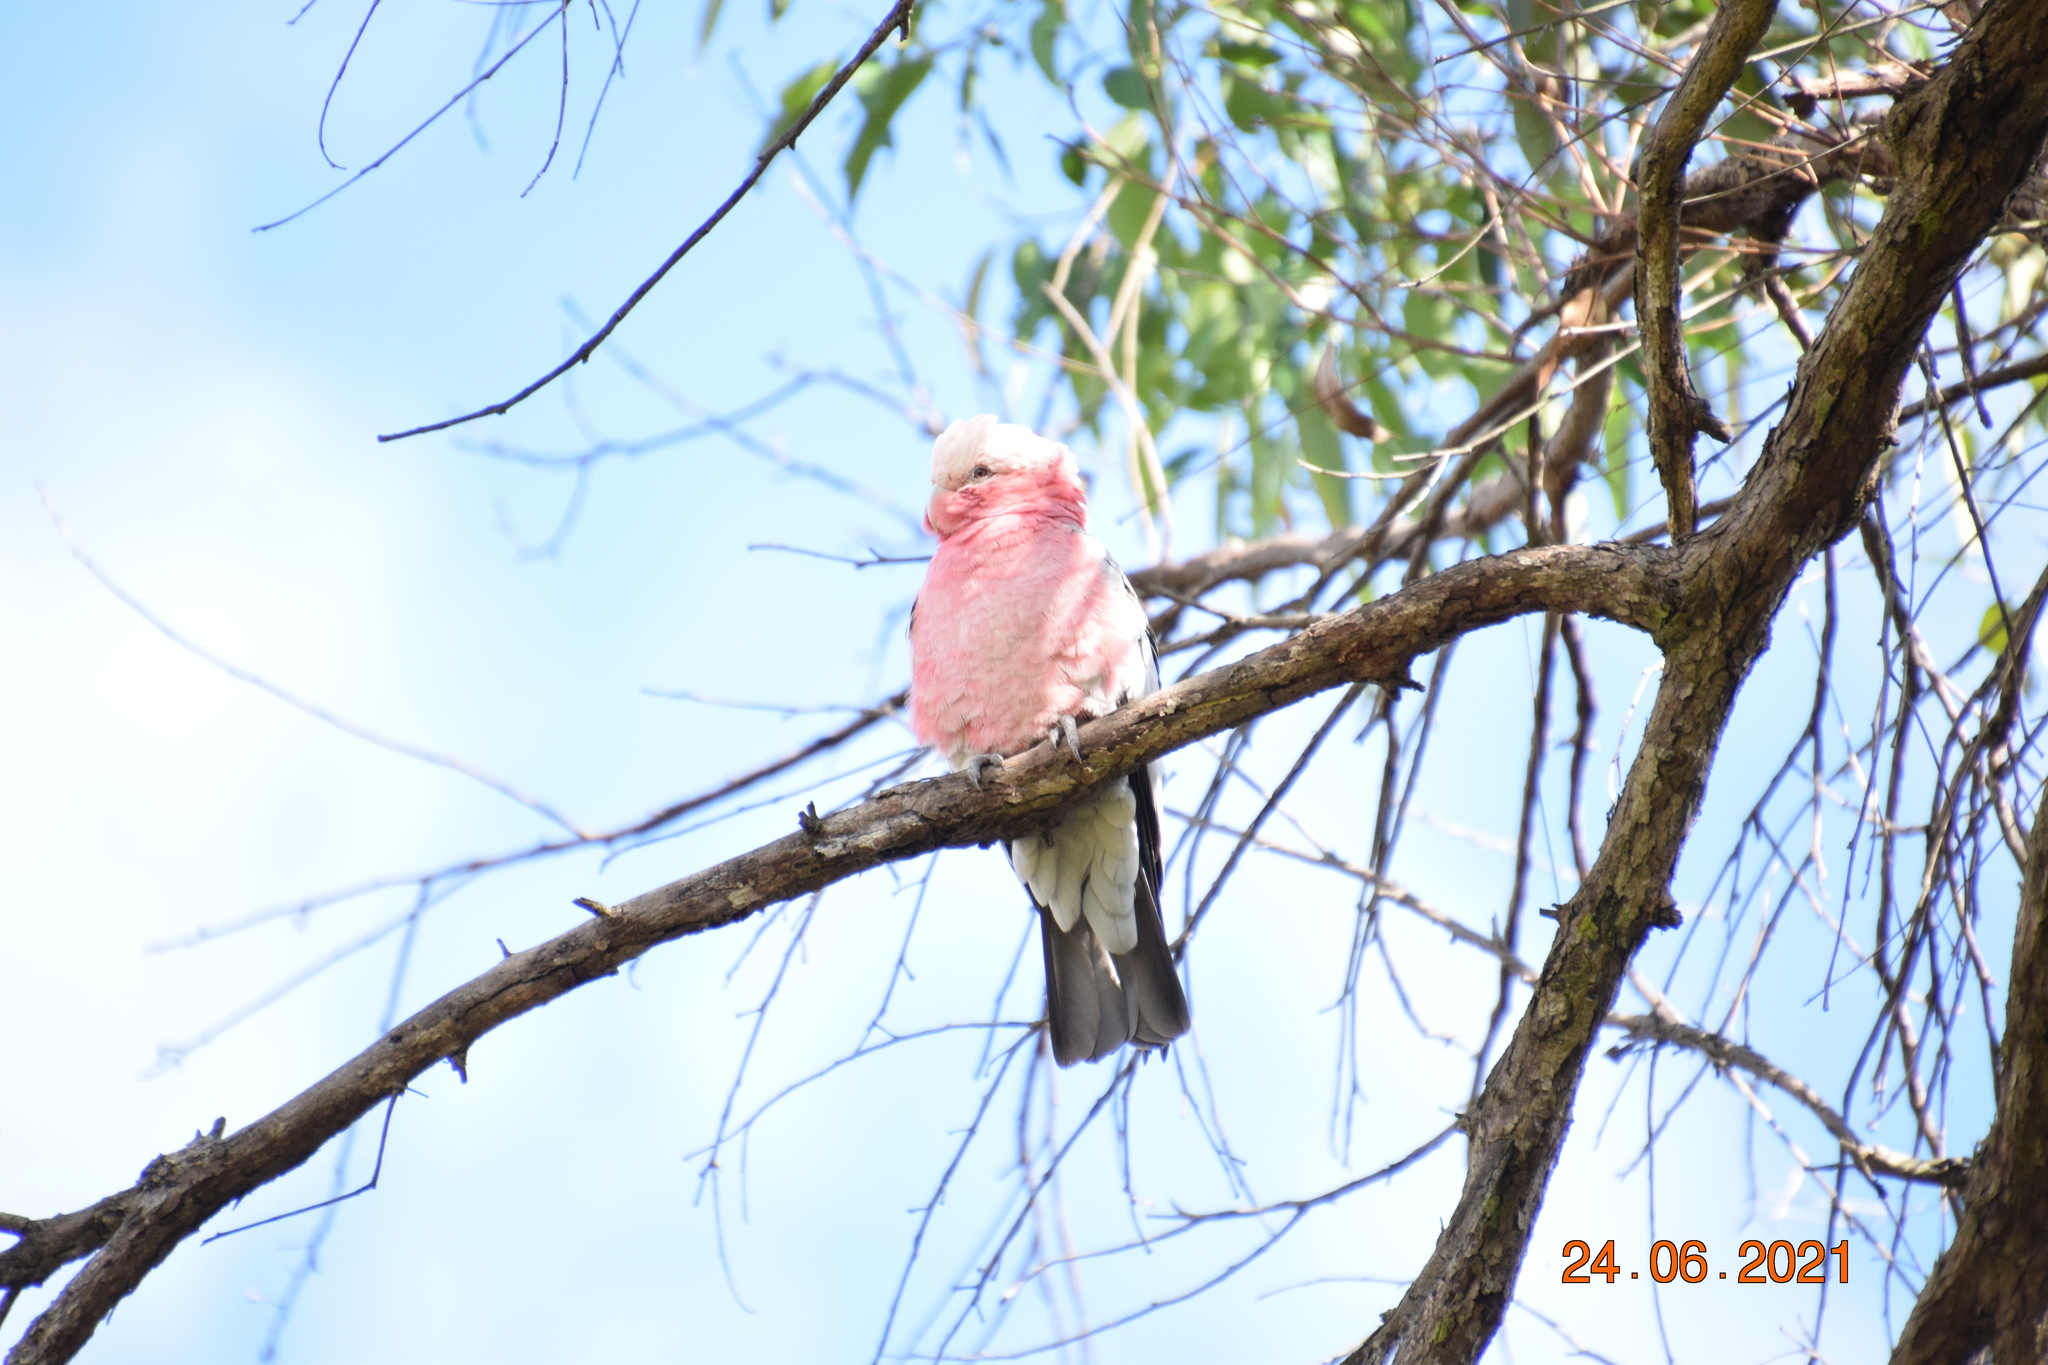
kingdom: Animalia
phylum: Chordata
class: Aves
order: Psittaciformes
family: Psittacidae
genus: Eolophus
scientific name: Eolophus roseicapilla
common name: Galah
